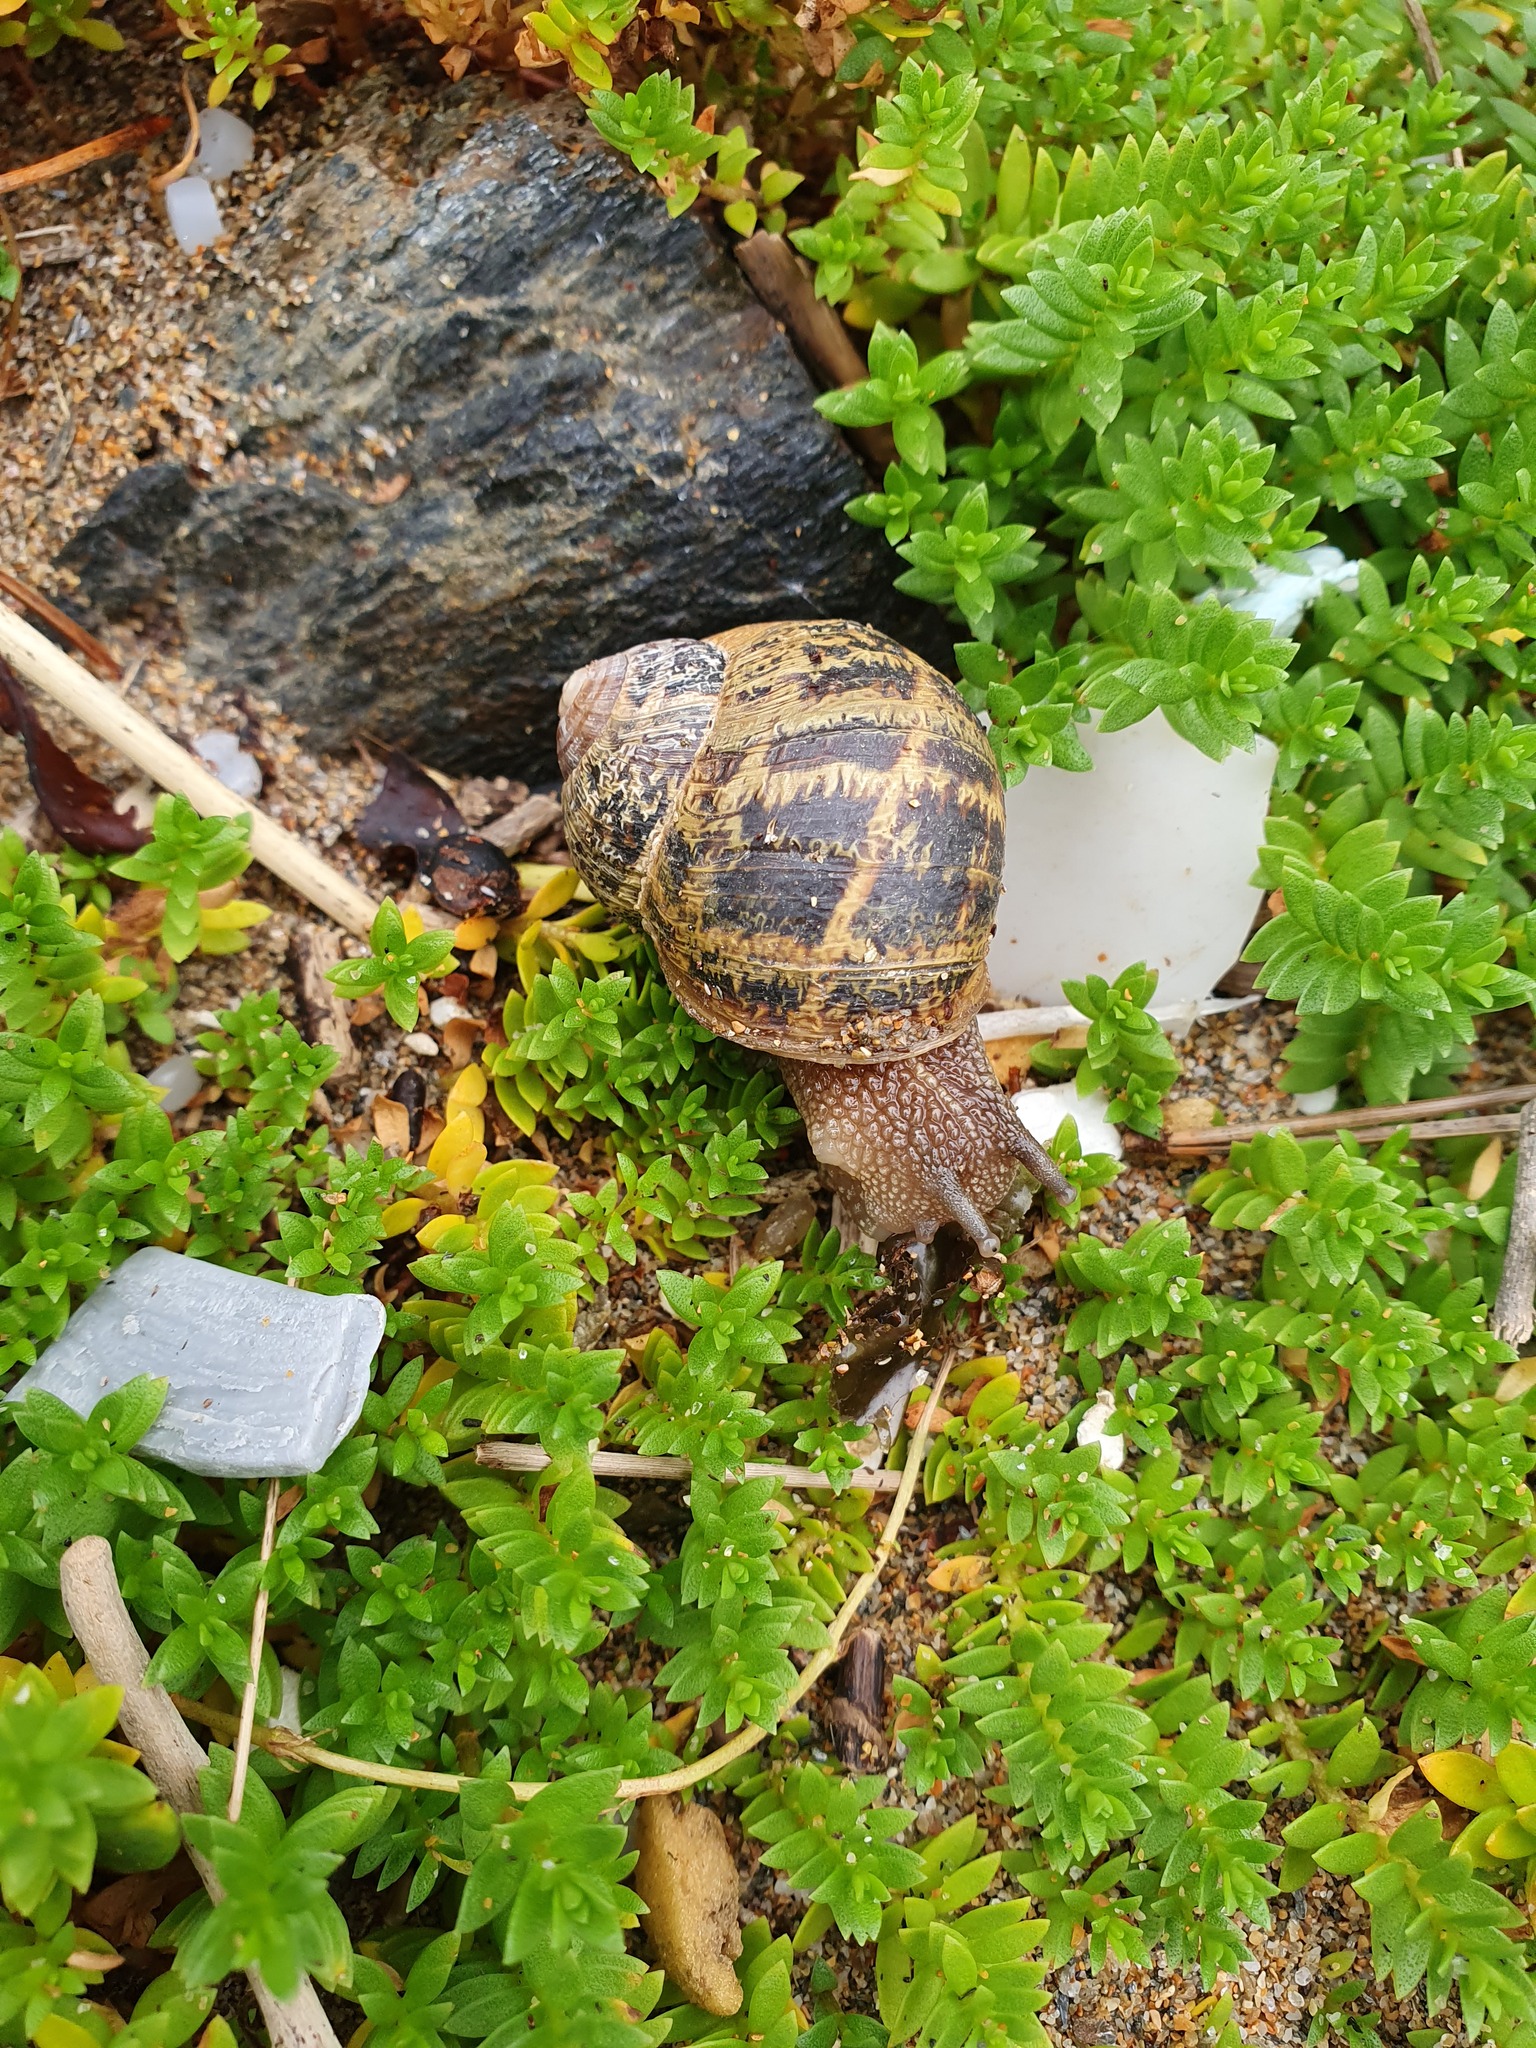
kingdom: Animalia
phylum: Mollusca
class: Gastropoda
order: Stylommatophora
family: Helicidae
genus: Cornu
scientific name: Cornu aspersum
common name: Brown garden snail
